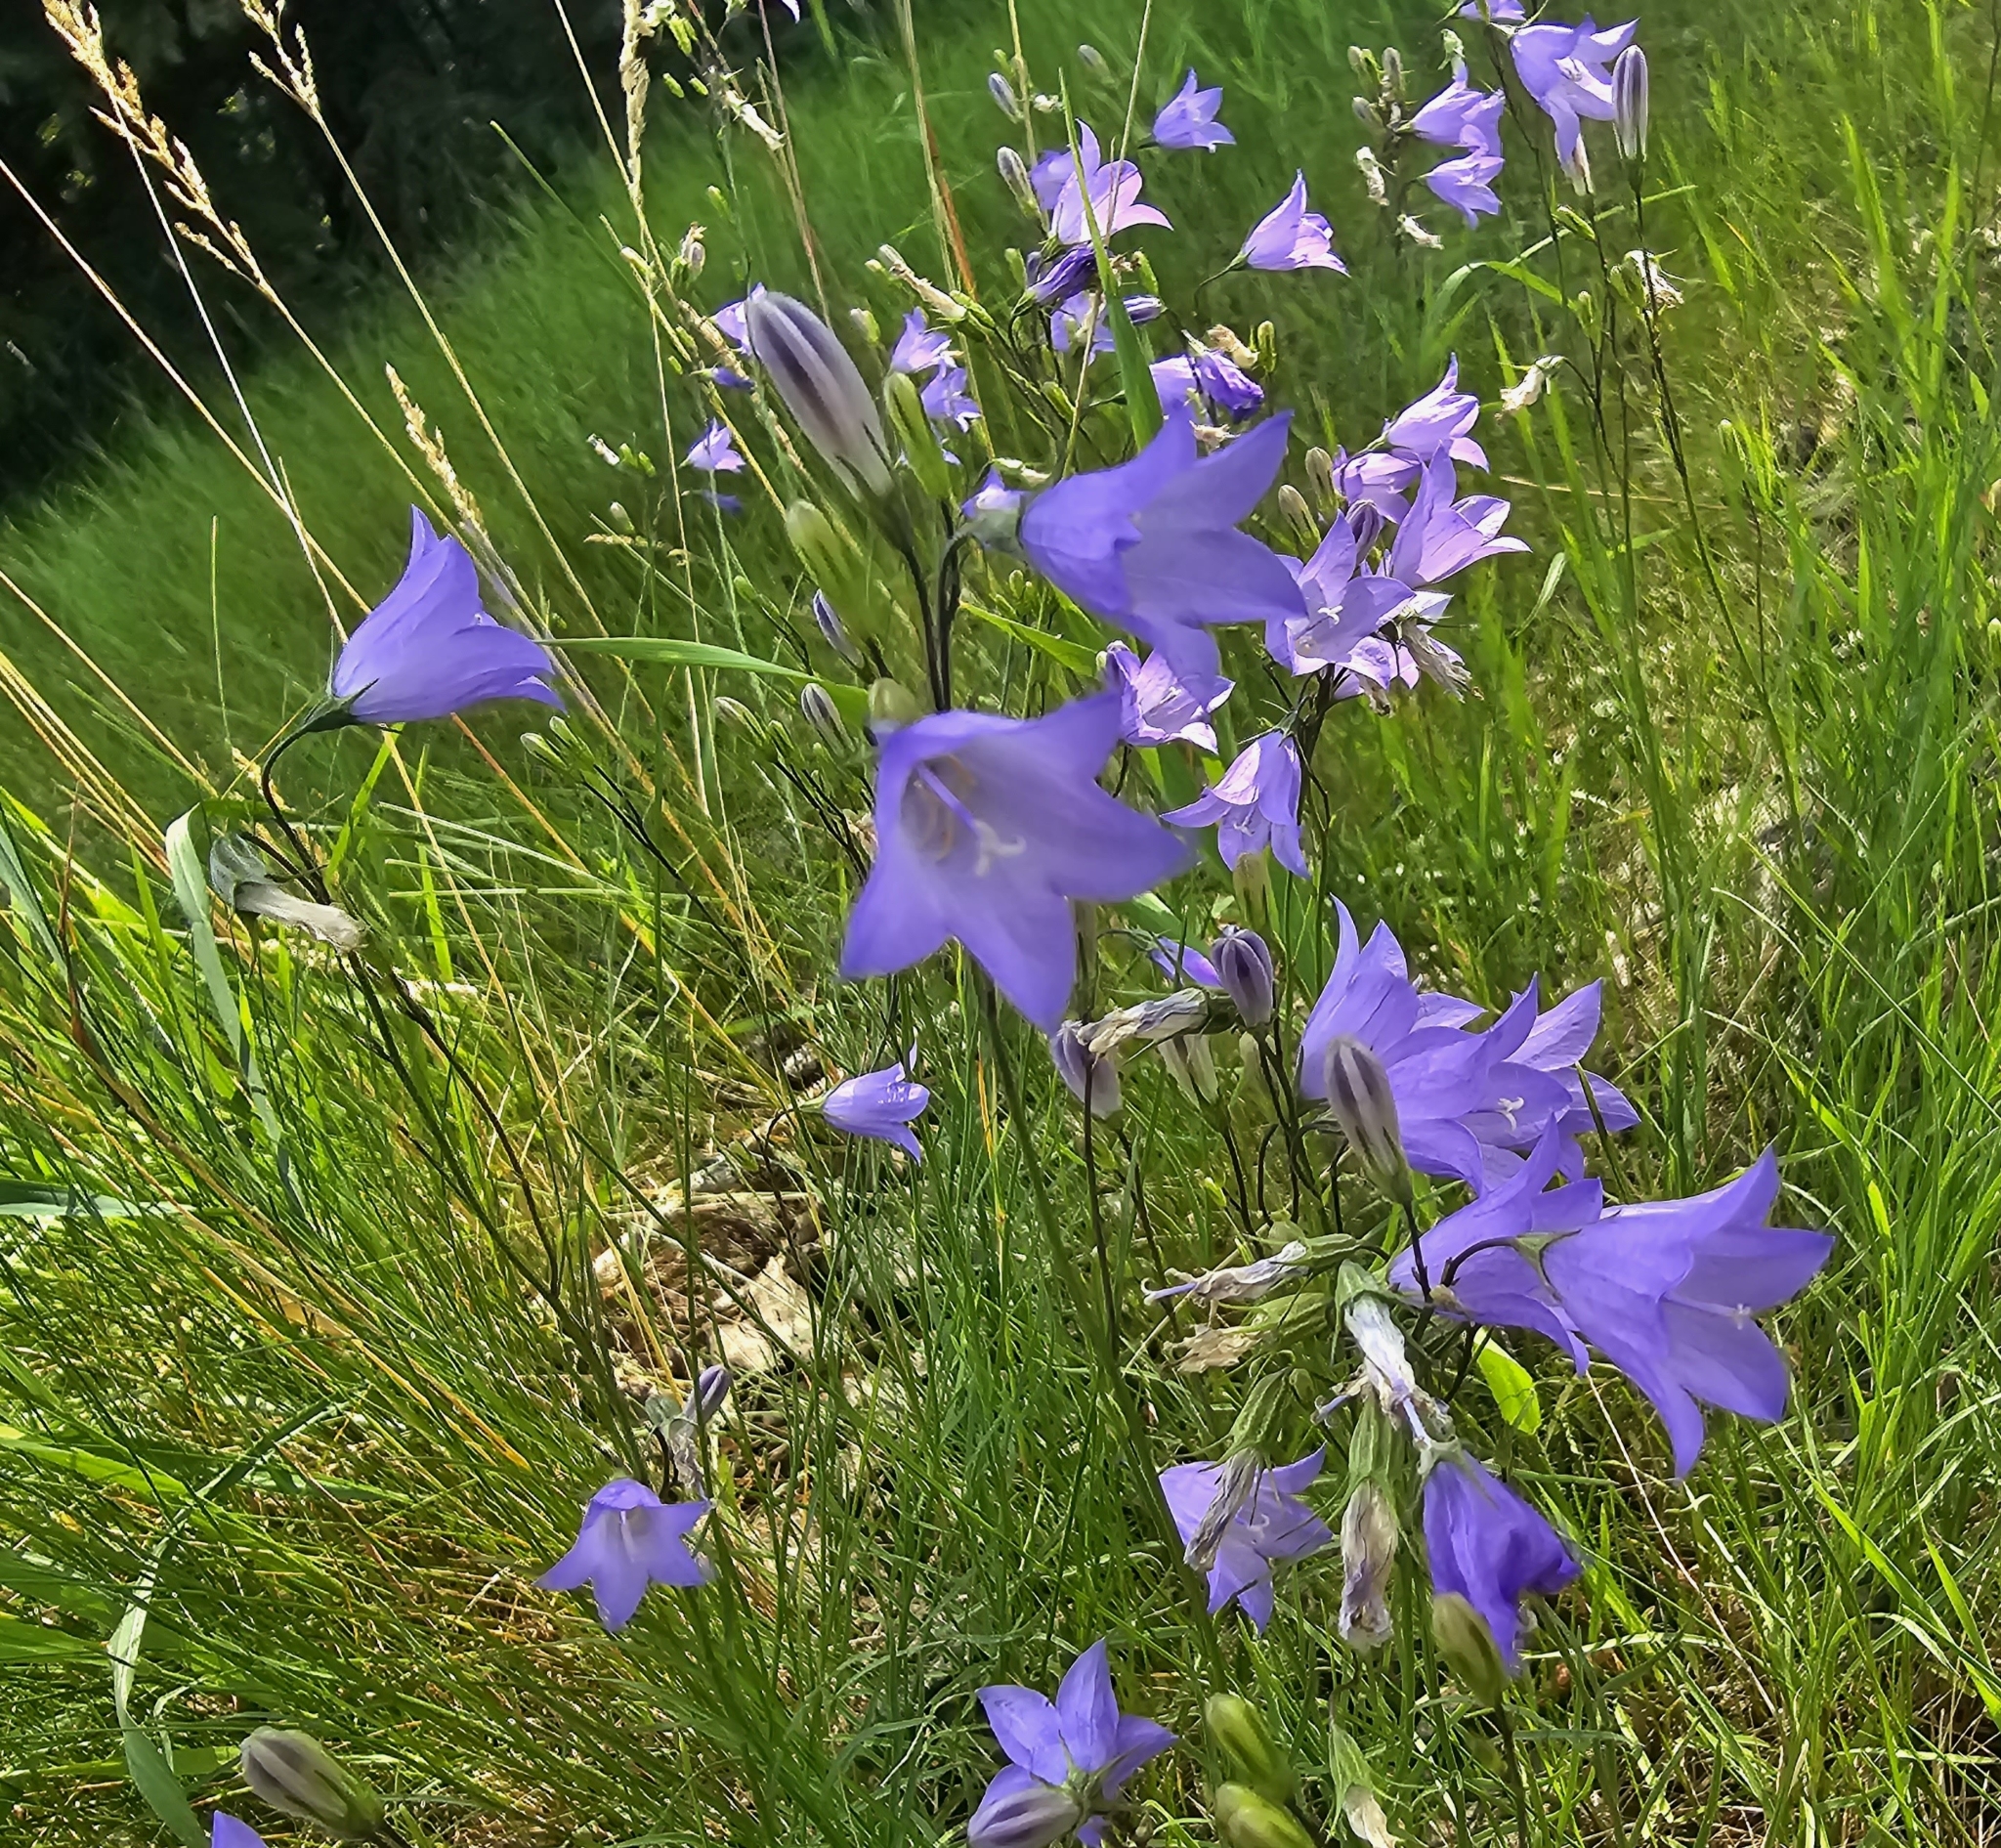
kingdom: Plantae
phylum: Tracheophyta
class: Magnoliopsida
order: Asterales
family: Campanulaceae
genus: Campanula
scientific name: Campanula alaskana
